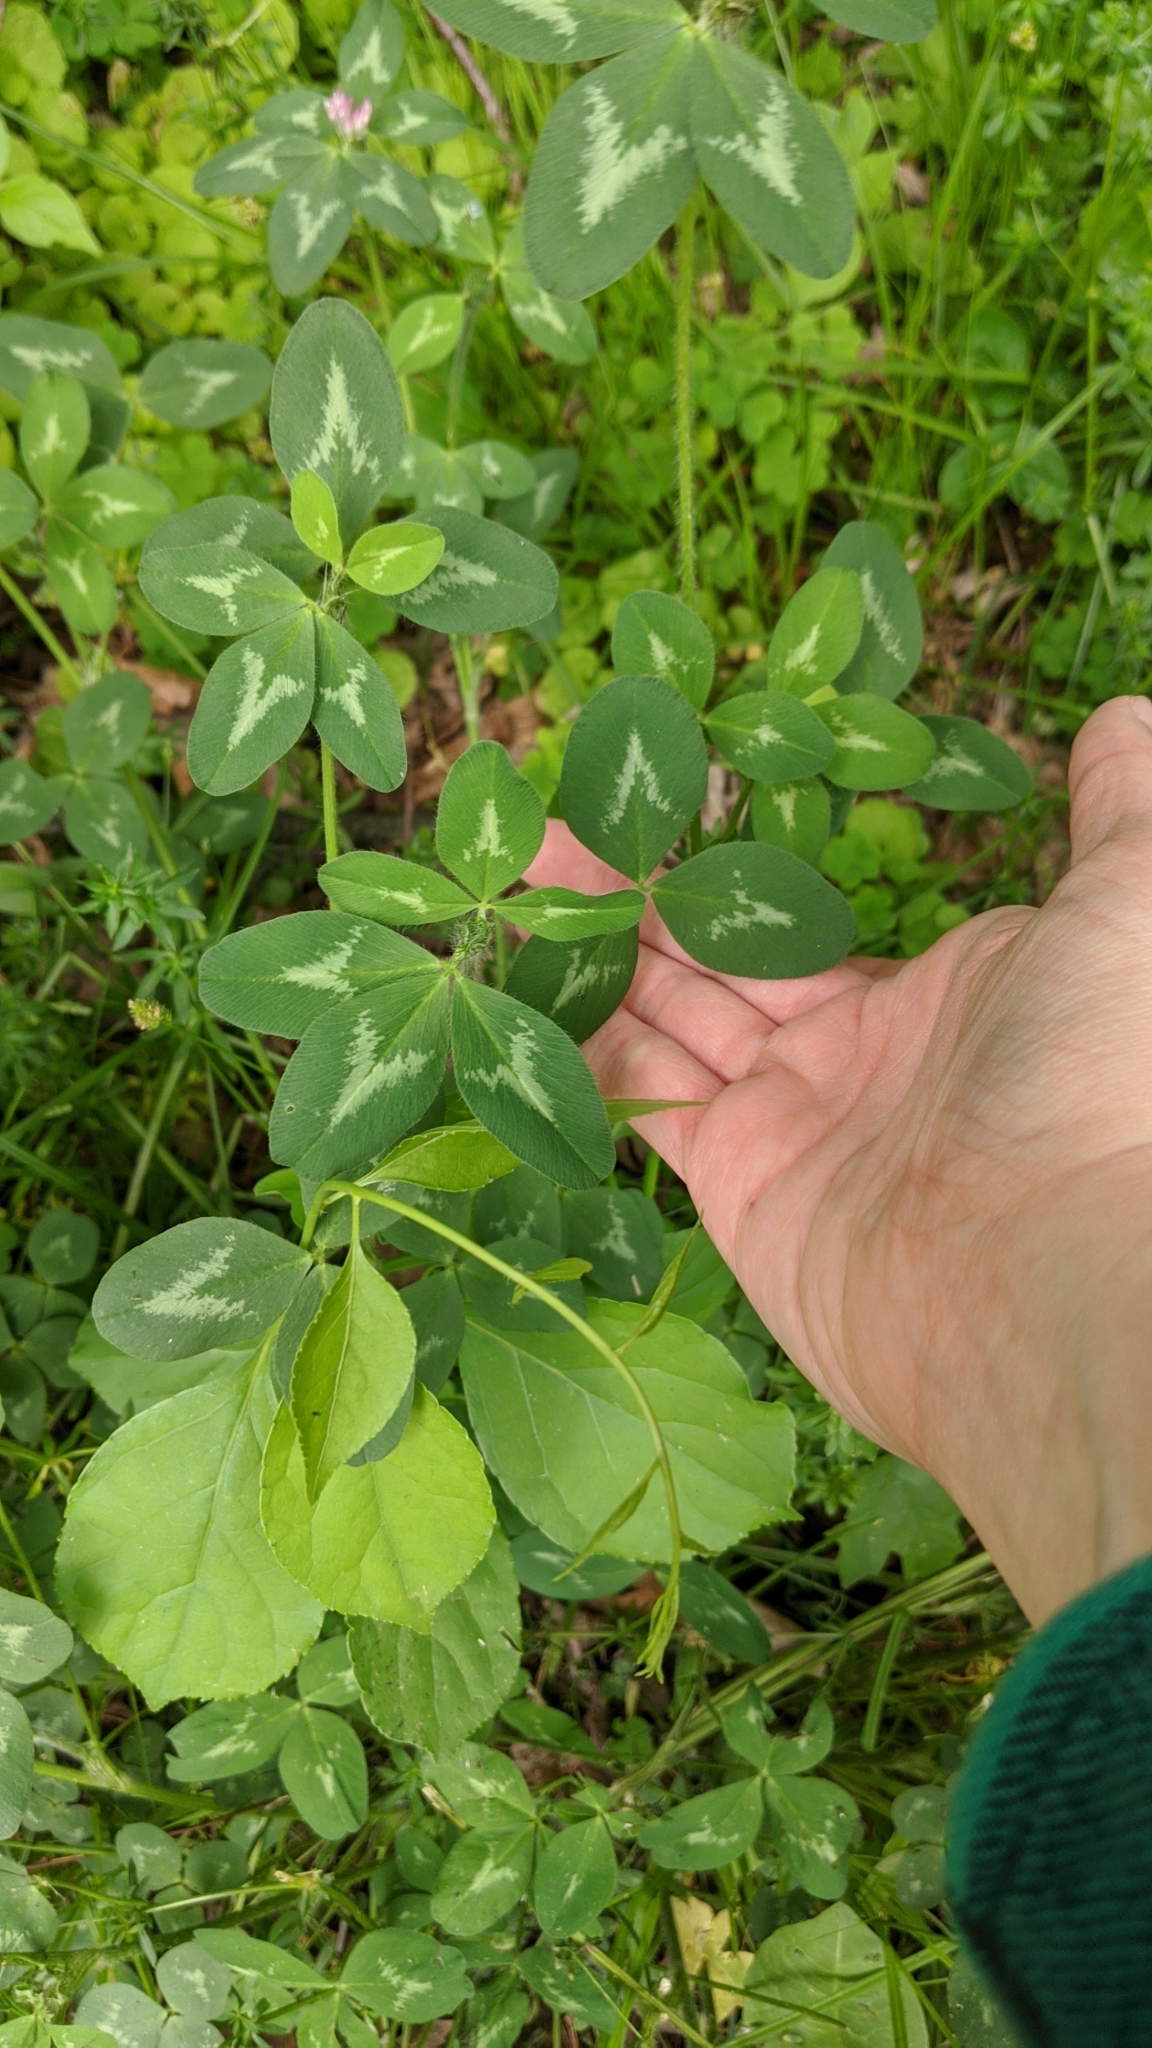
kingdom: Plantae
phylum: Tracheophyta
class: Magnoliopsida
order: Fabales
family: Fabaceae
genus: Trifolium
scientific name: Trifolium pratense
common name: Red clover
